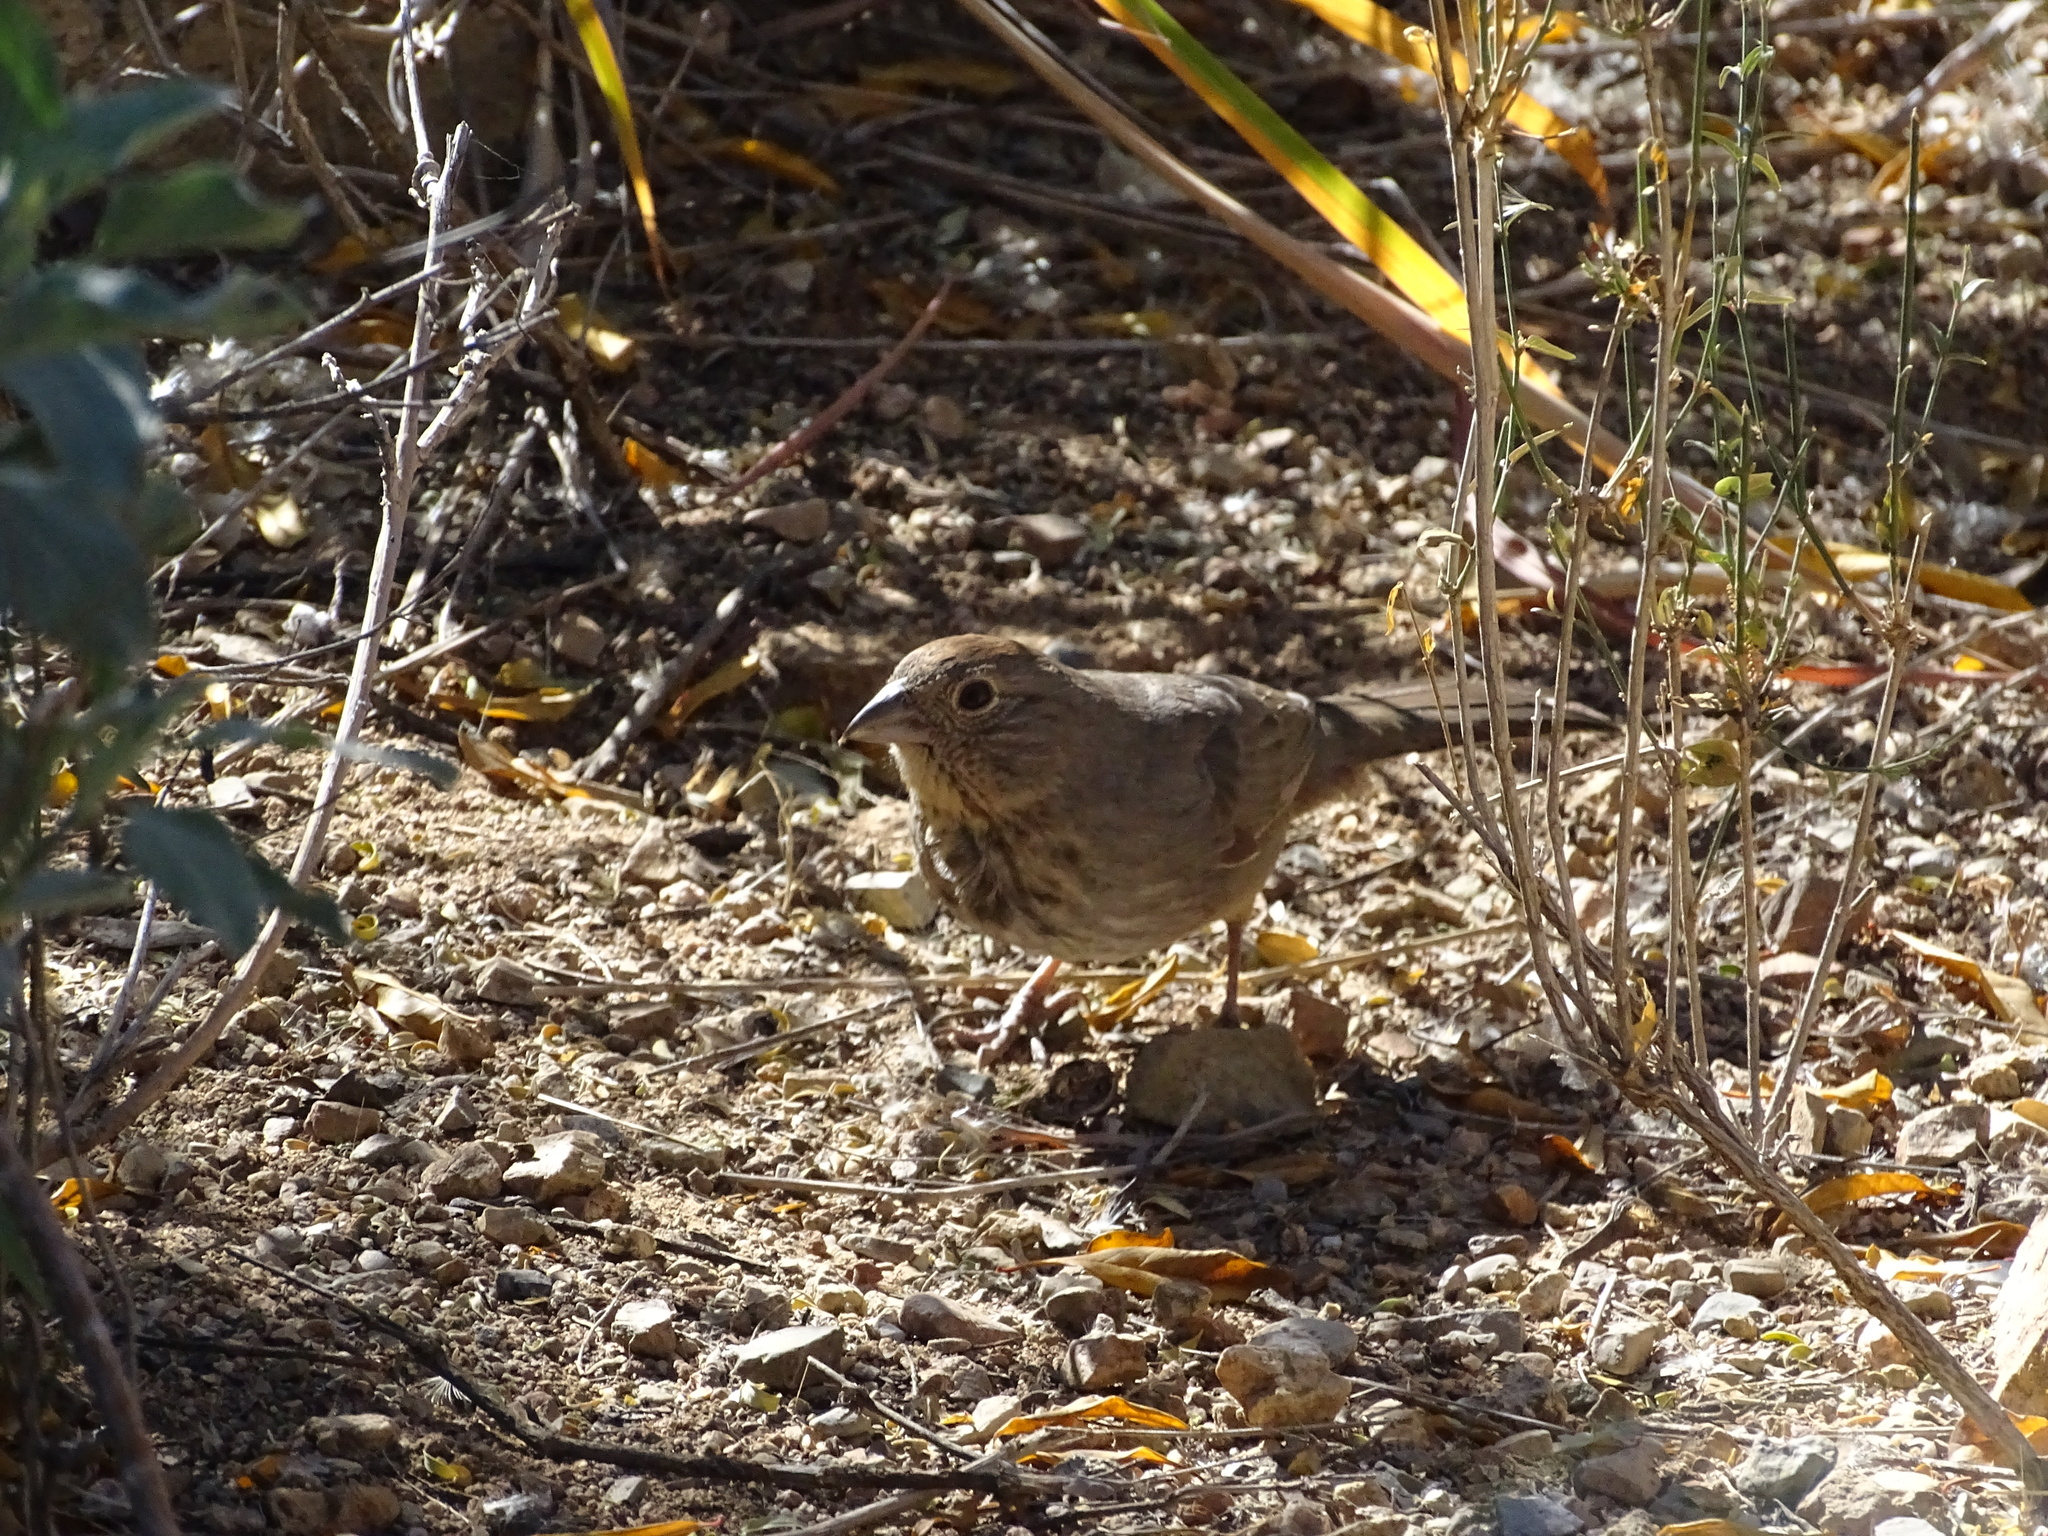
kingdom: Animalia
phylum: Chordata
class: Aves
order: Passeriformes
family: Passerellidae
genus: Melozone
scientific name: Melozone fusca
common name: Canyon towhee
